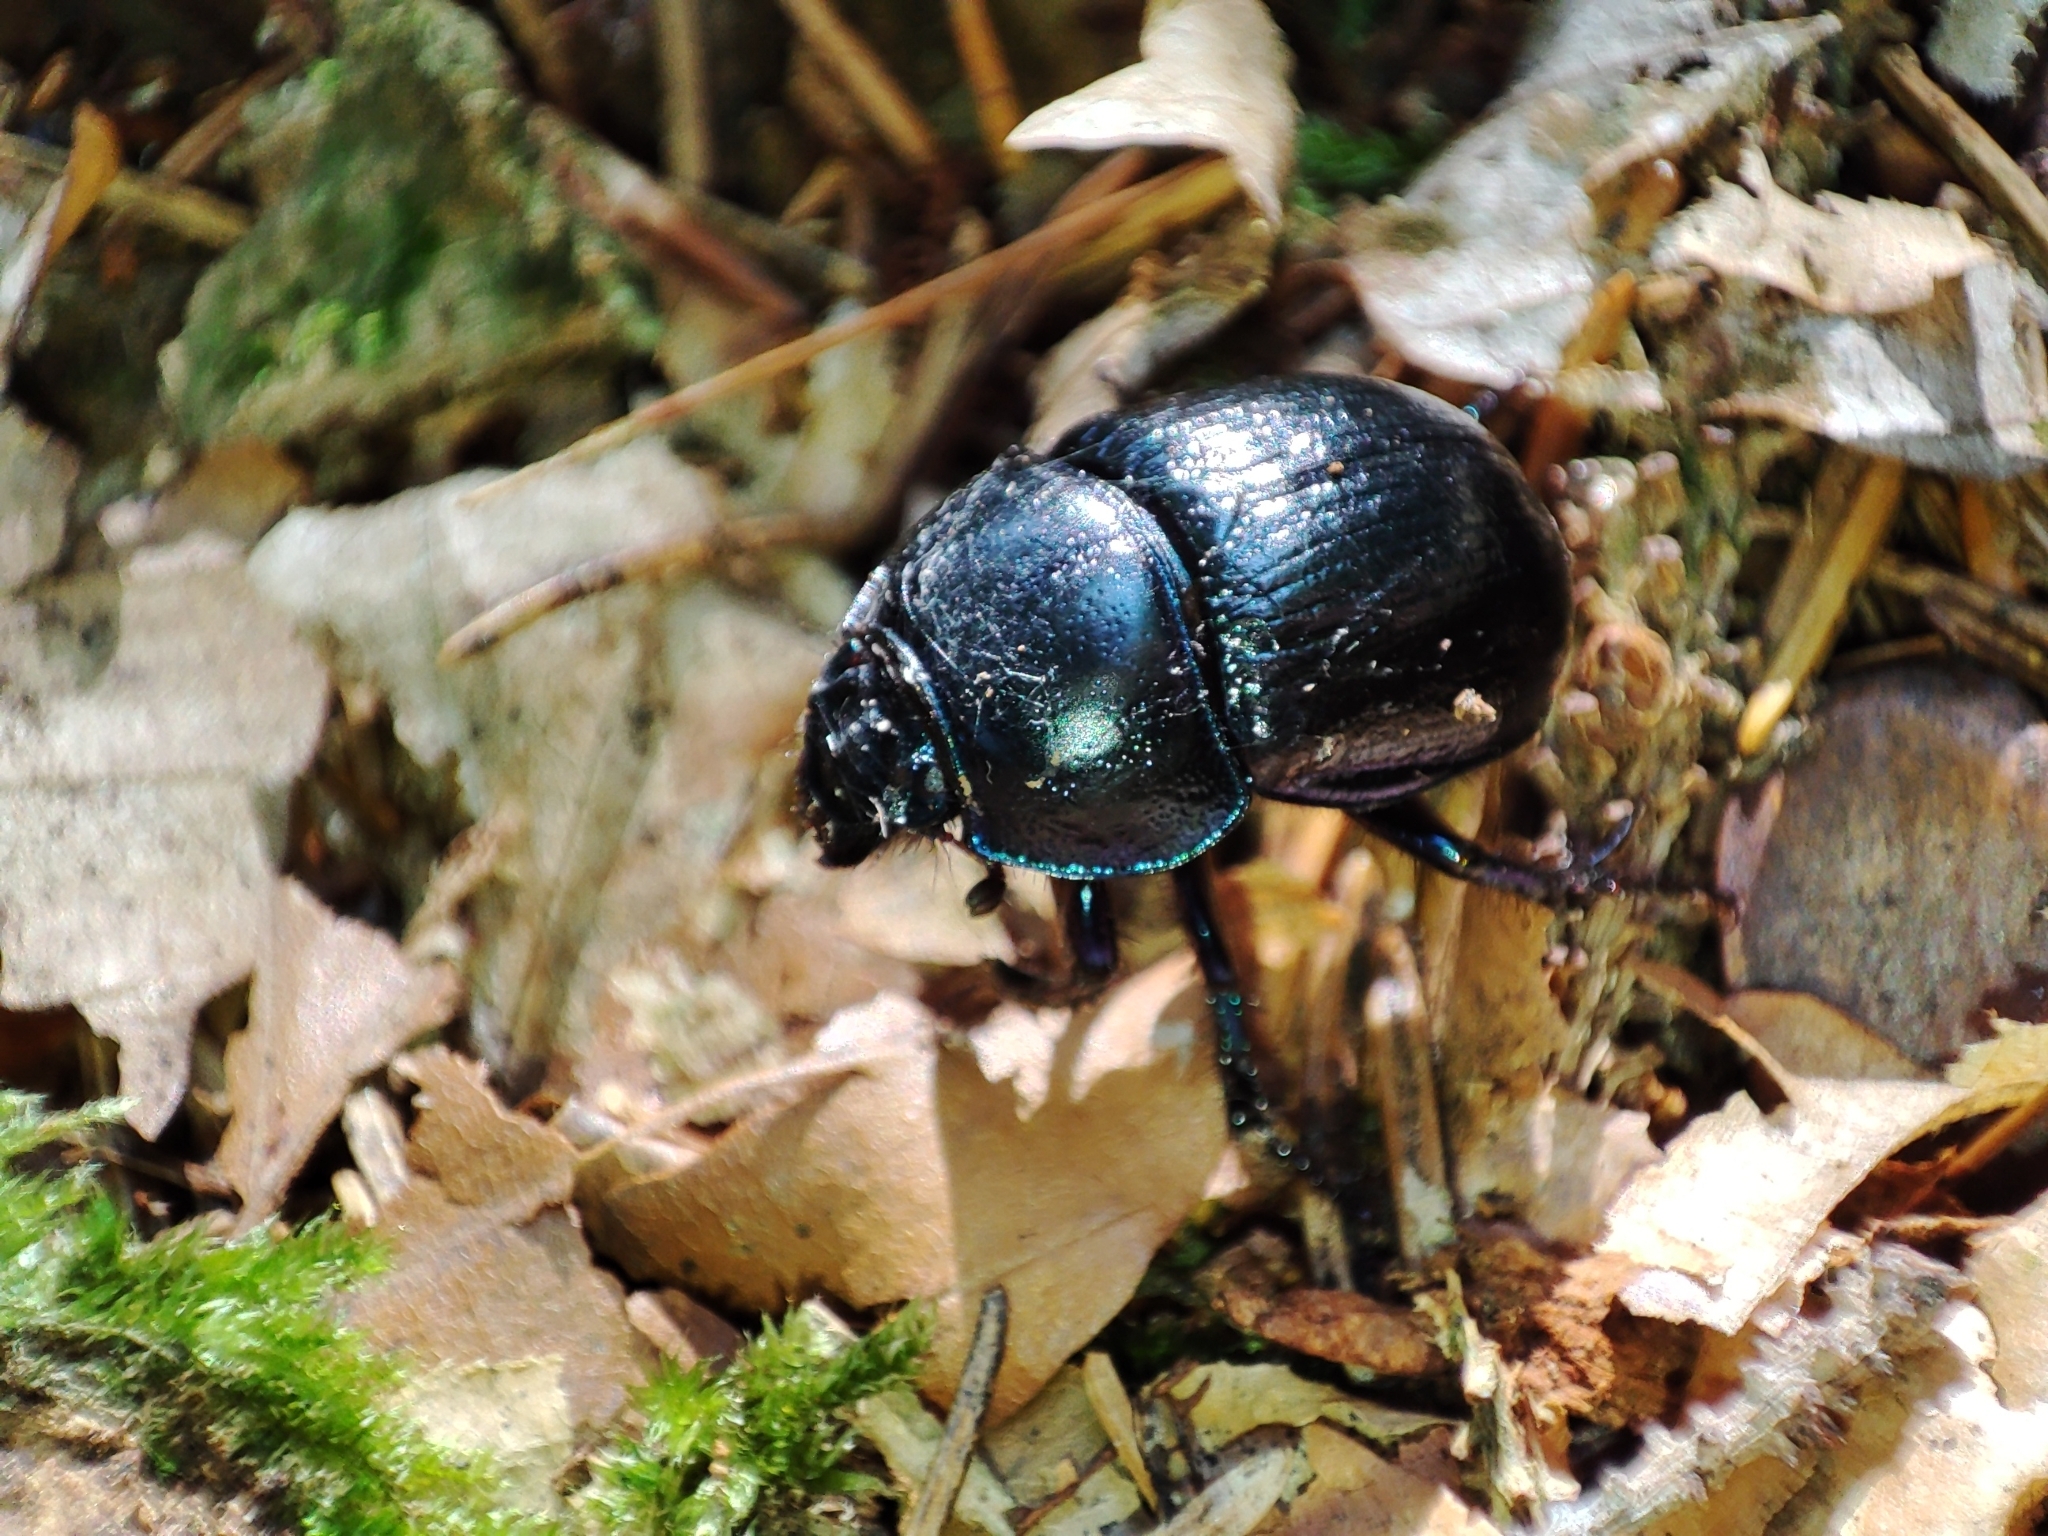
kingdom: Animalia
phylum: Arthropoda
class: Insecta
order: Coleoptera
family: Geotrupidae
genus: Anoplotrupes
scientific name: Anoplotrupes stercorosus
